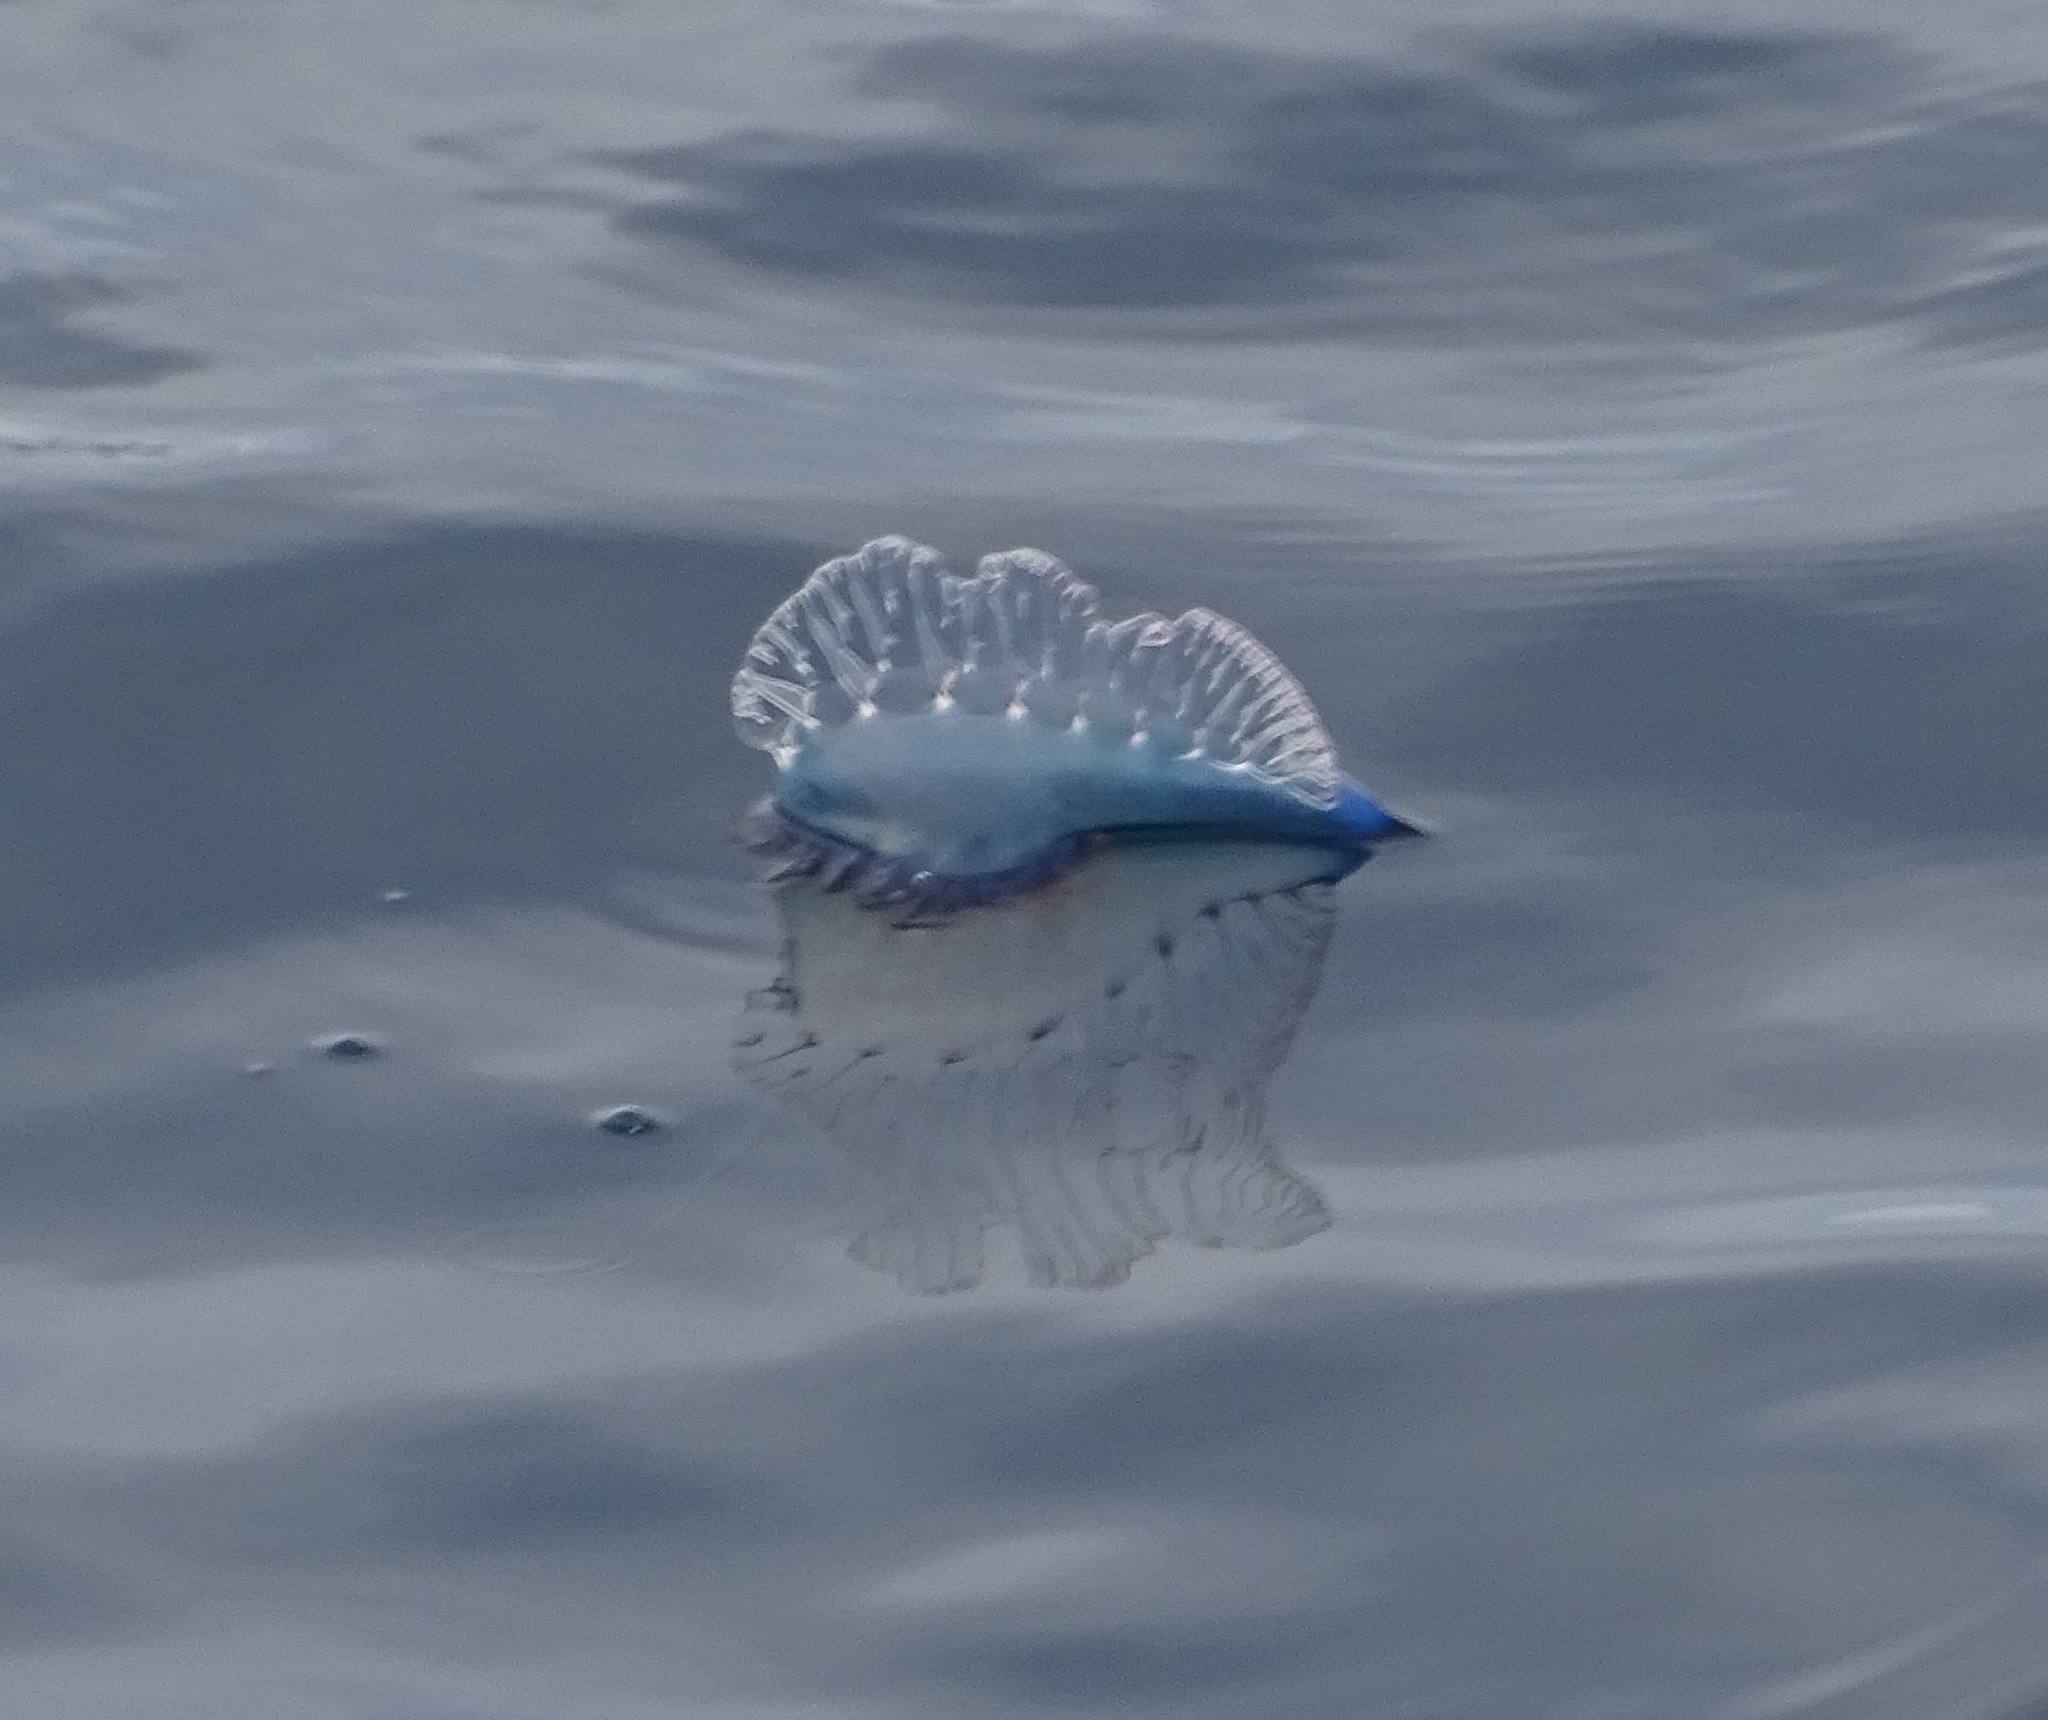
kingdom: Animalia
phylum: Cnidaria
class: Hydrozoa
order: Siphonophorae
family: Physaliidae
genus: Physalia
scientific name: Physalia physalis
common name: Portuguese man-of-war
